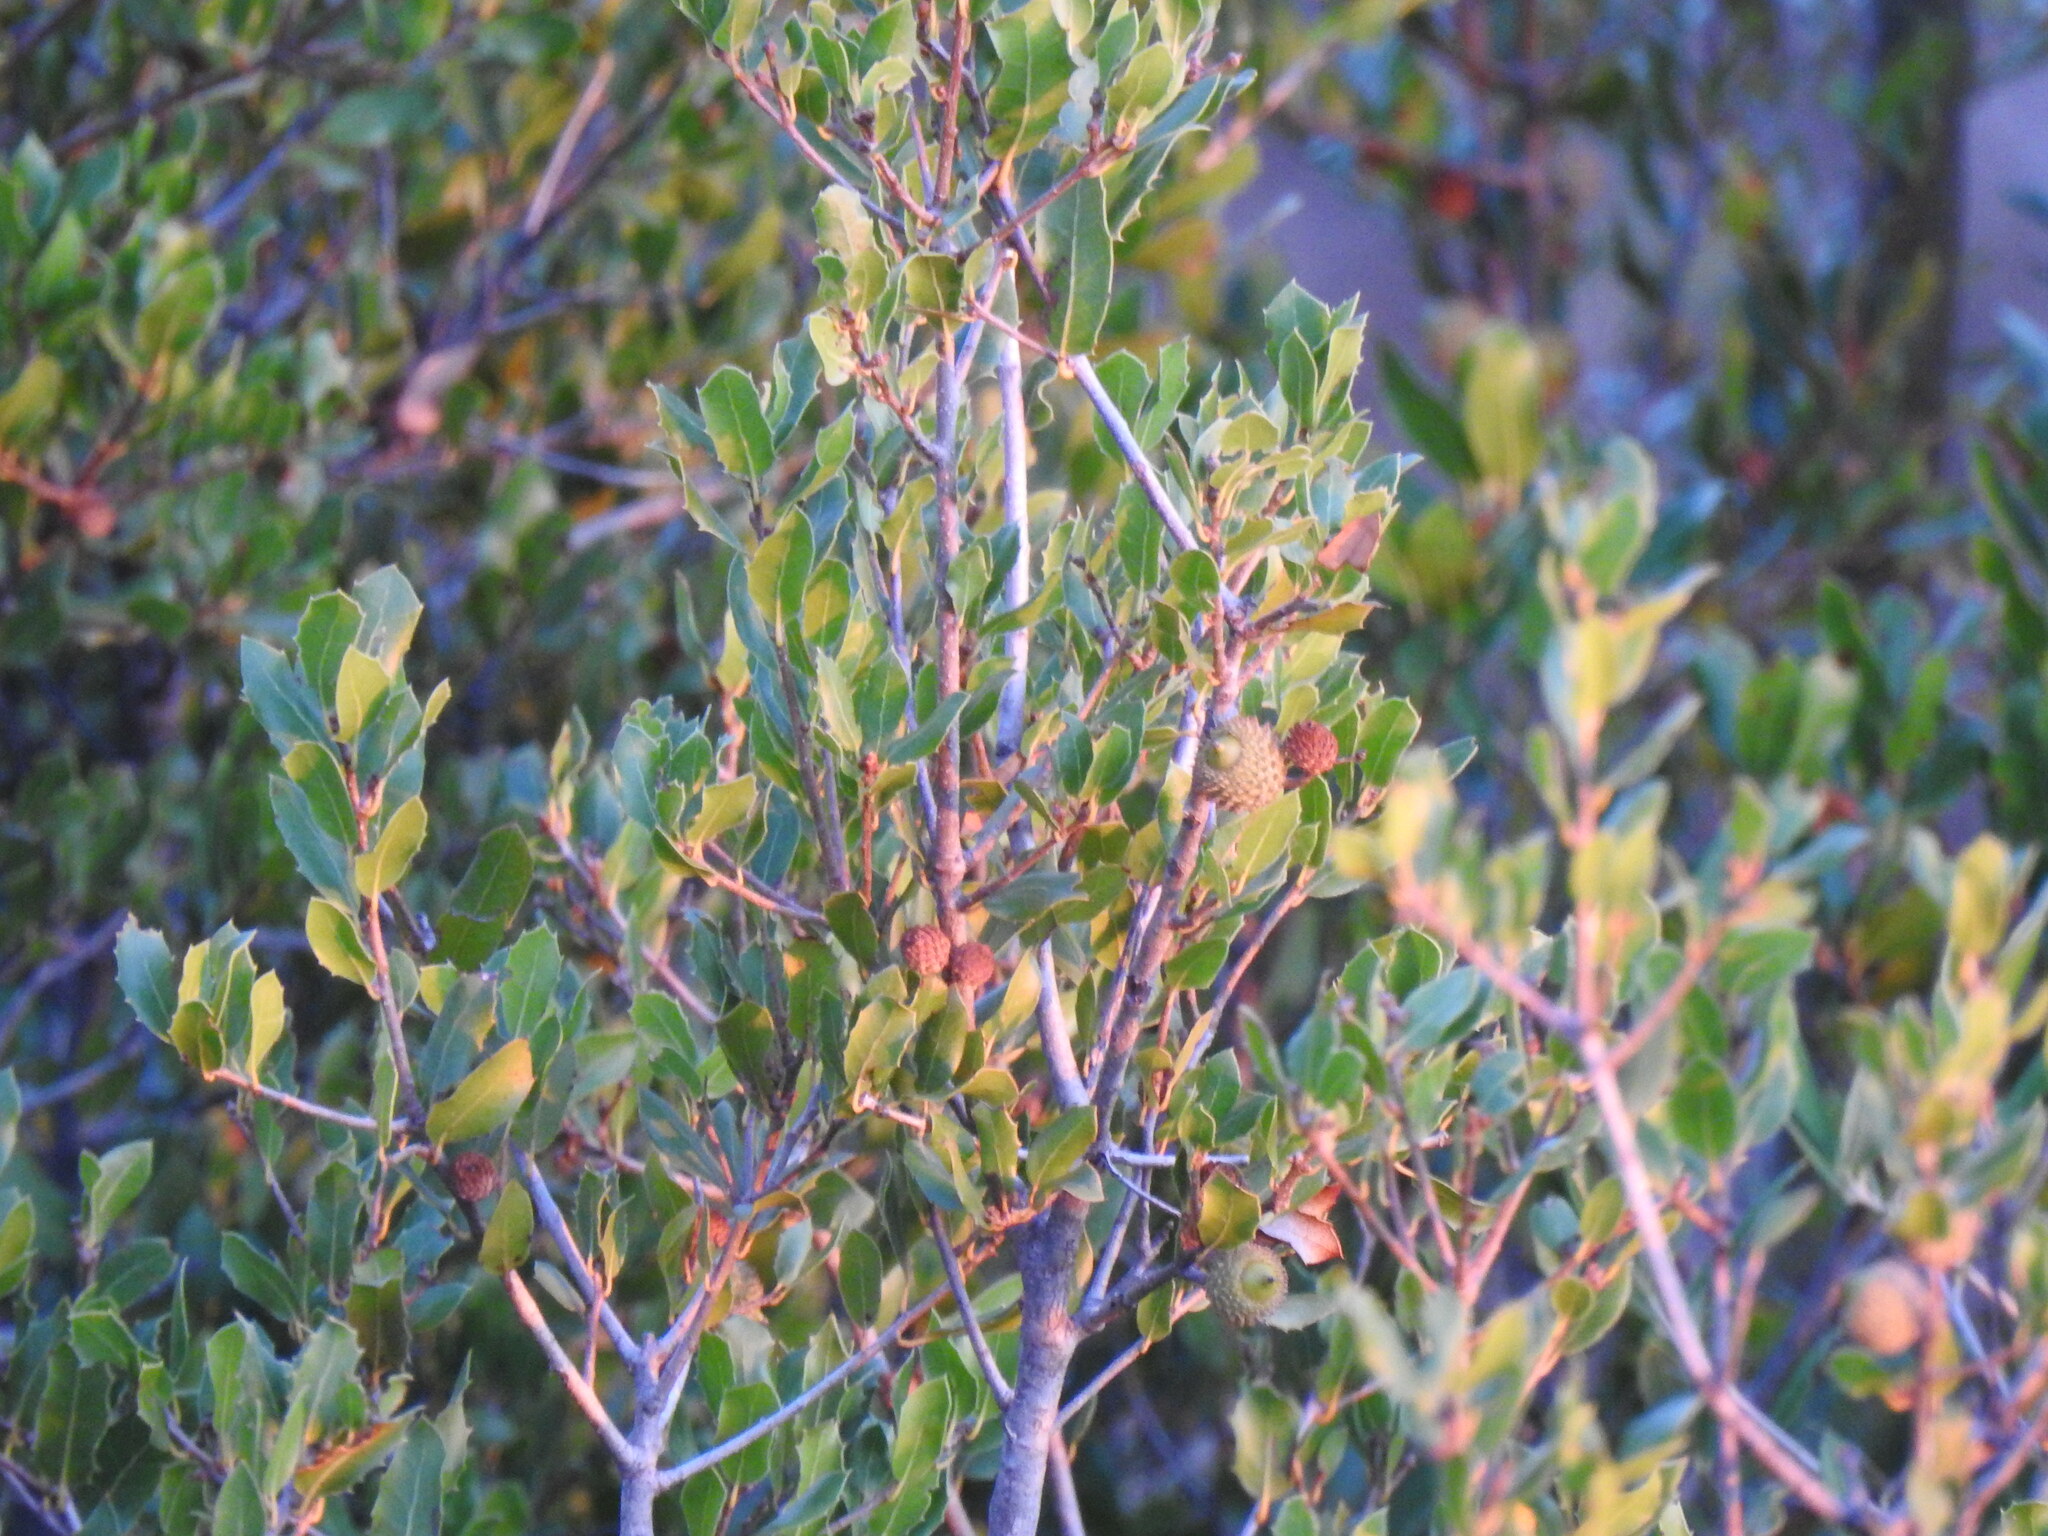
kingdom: Plantae
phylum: Tracheophyta
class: Magnoliopsida
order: Fagales
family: Fagaceae
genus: Quercus
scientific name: Quercus coccifera
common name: Kermes oak
